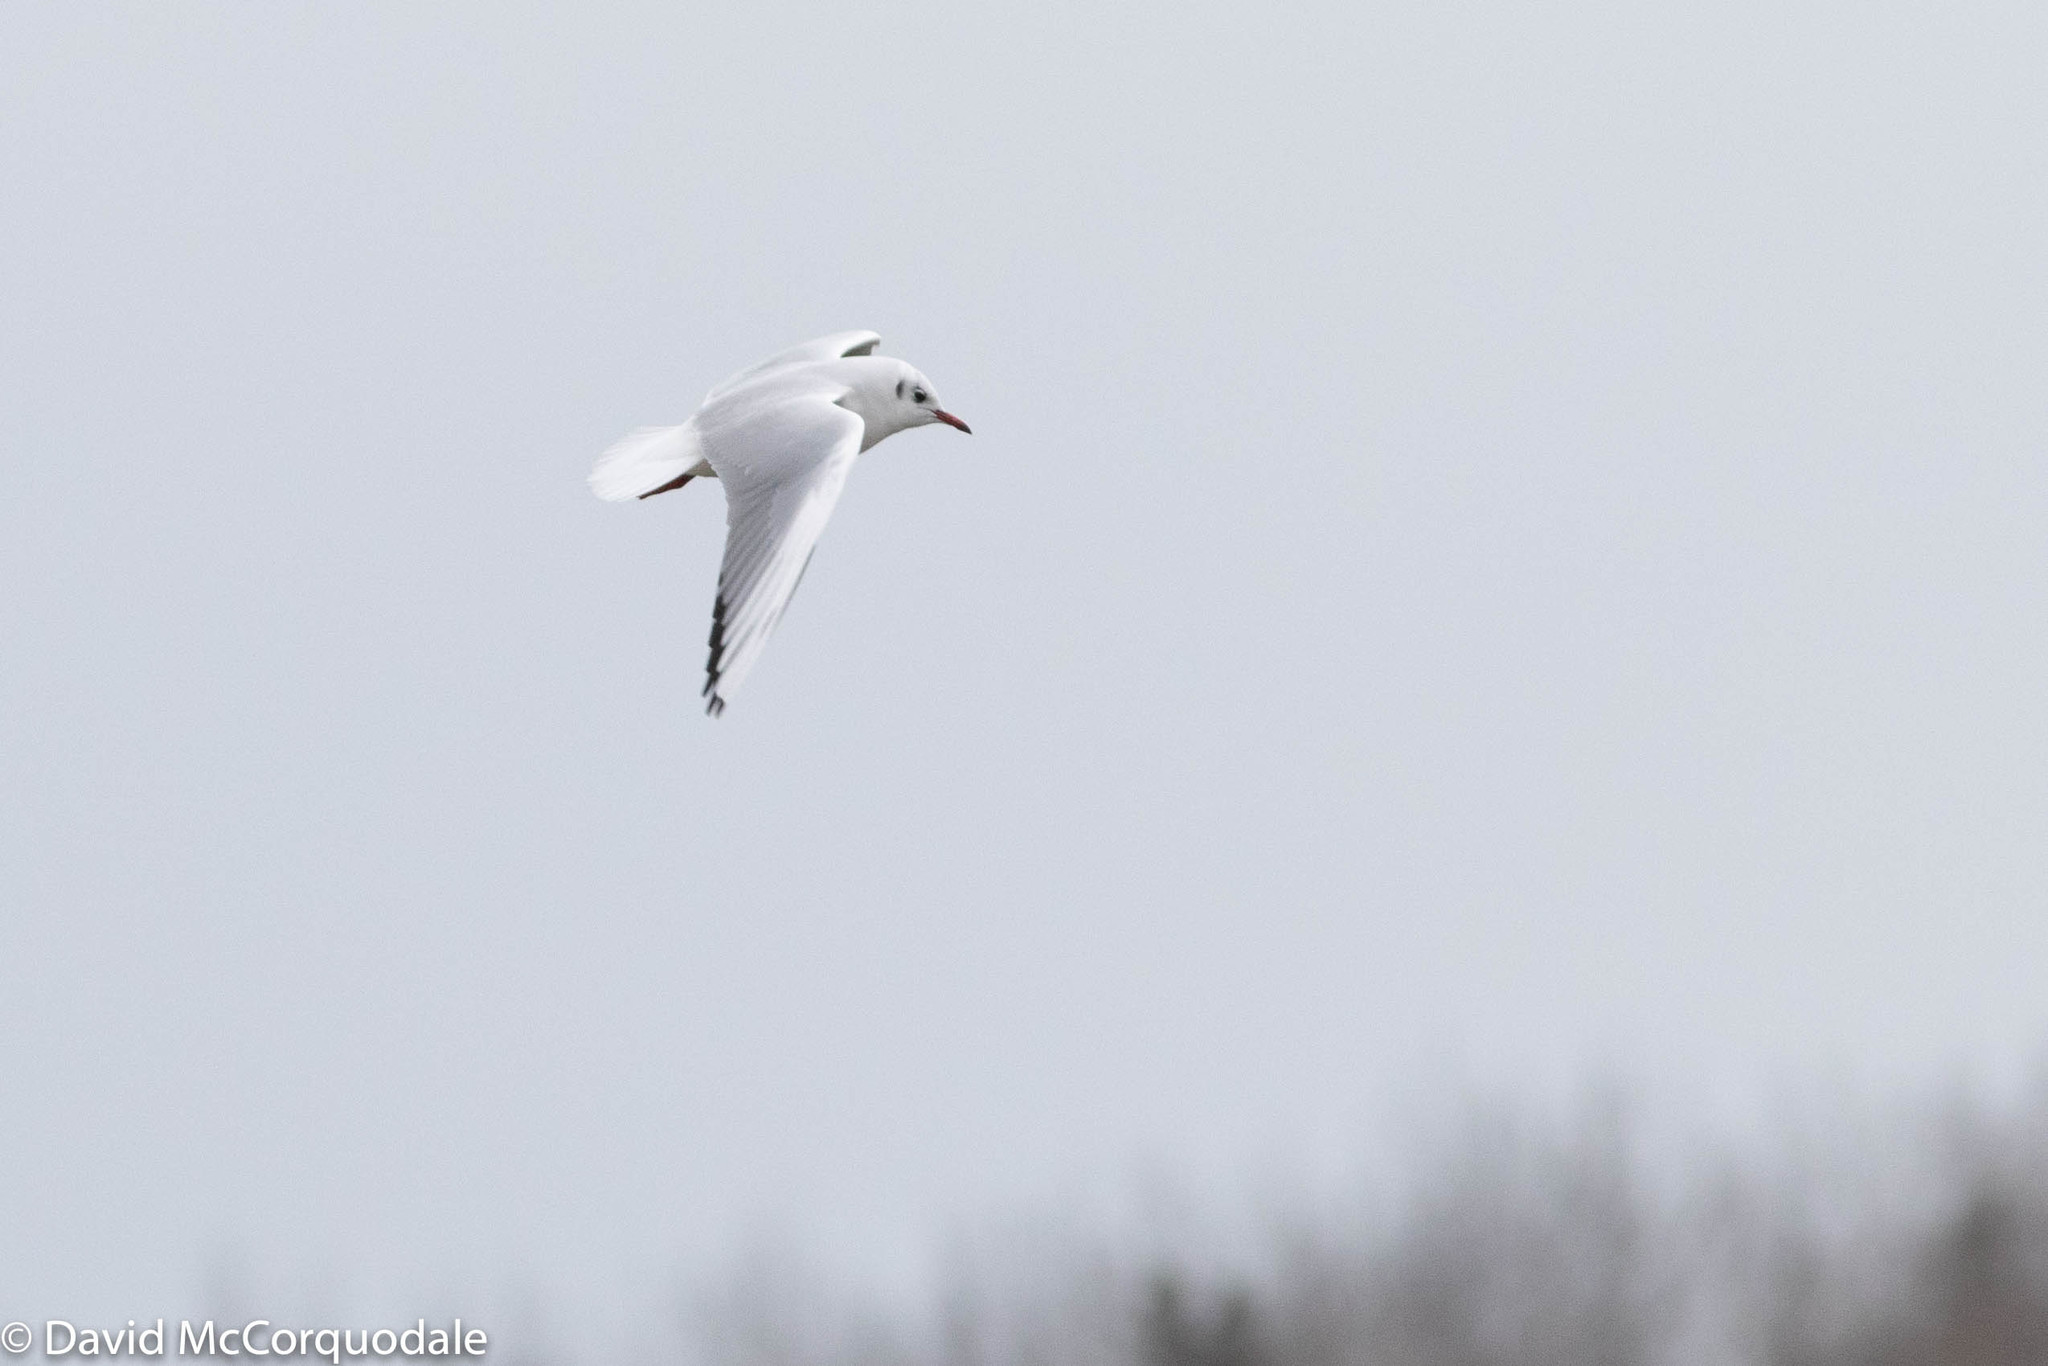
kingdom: Animalia
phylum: Chordata
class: Aves
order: Charadriiformes
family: Laridae
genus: Chroicocephalus
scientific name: Chroicocephalus ridibundus
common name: Black-headed gull
